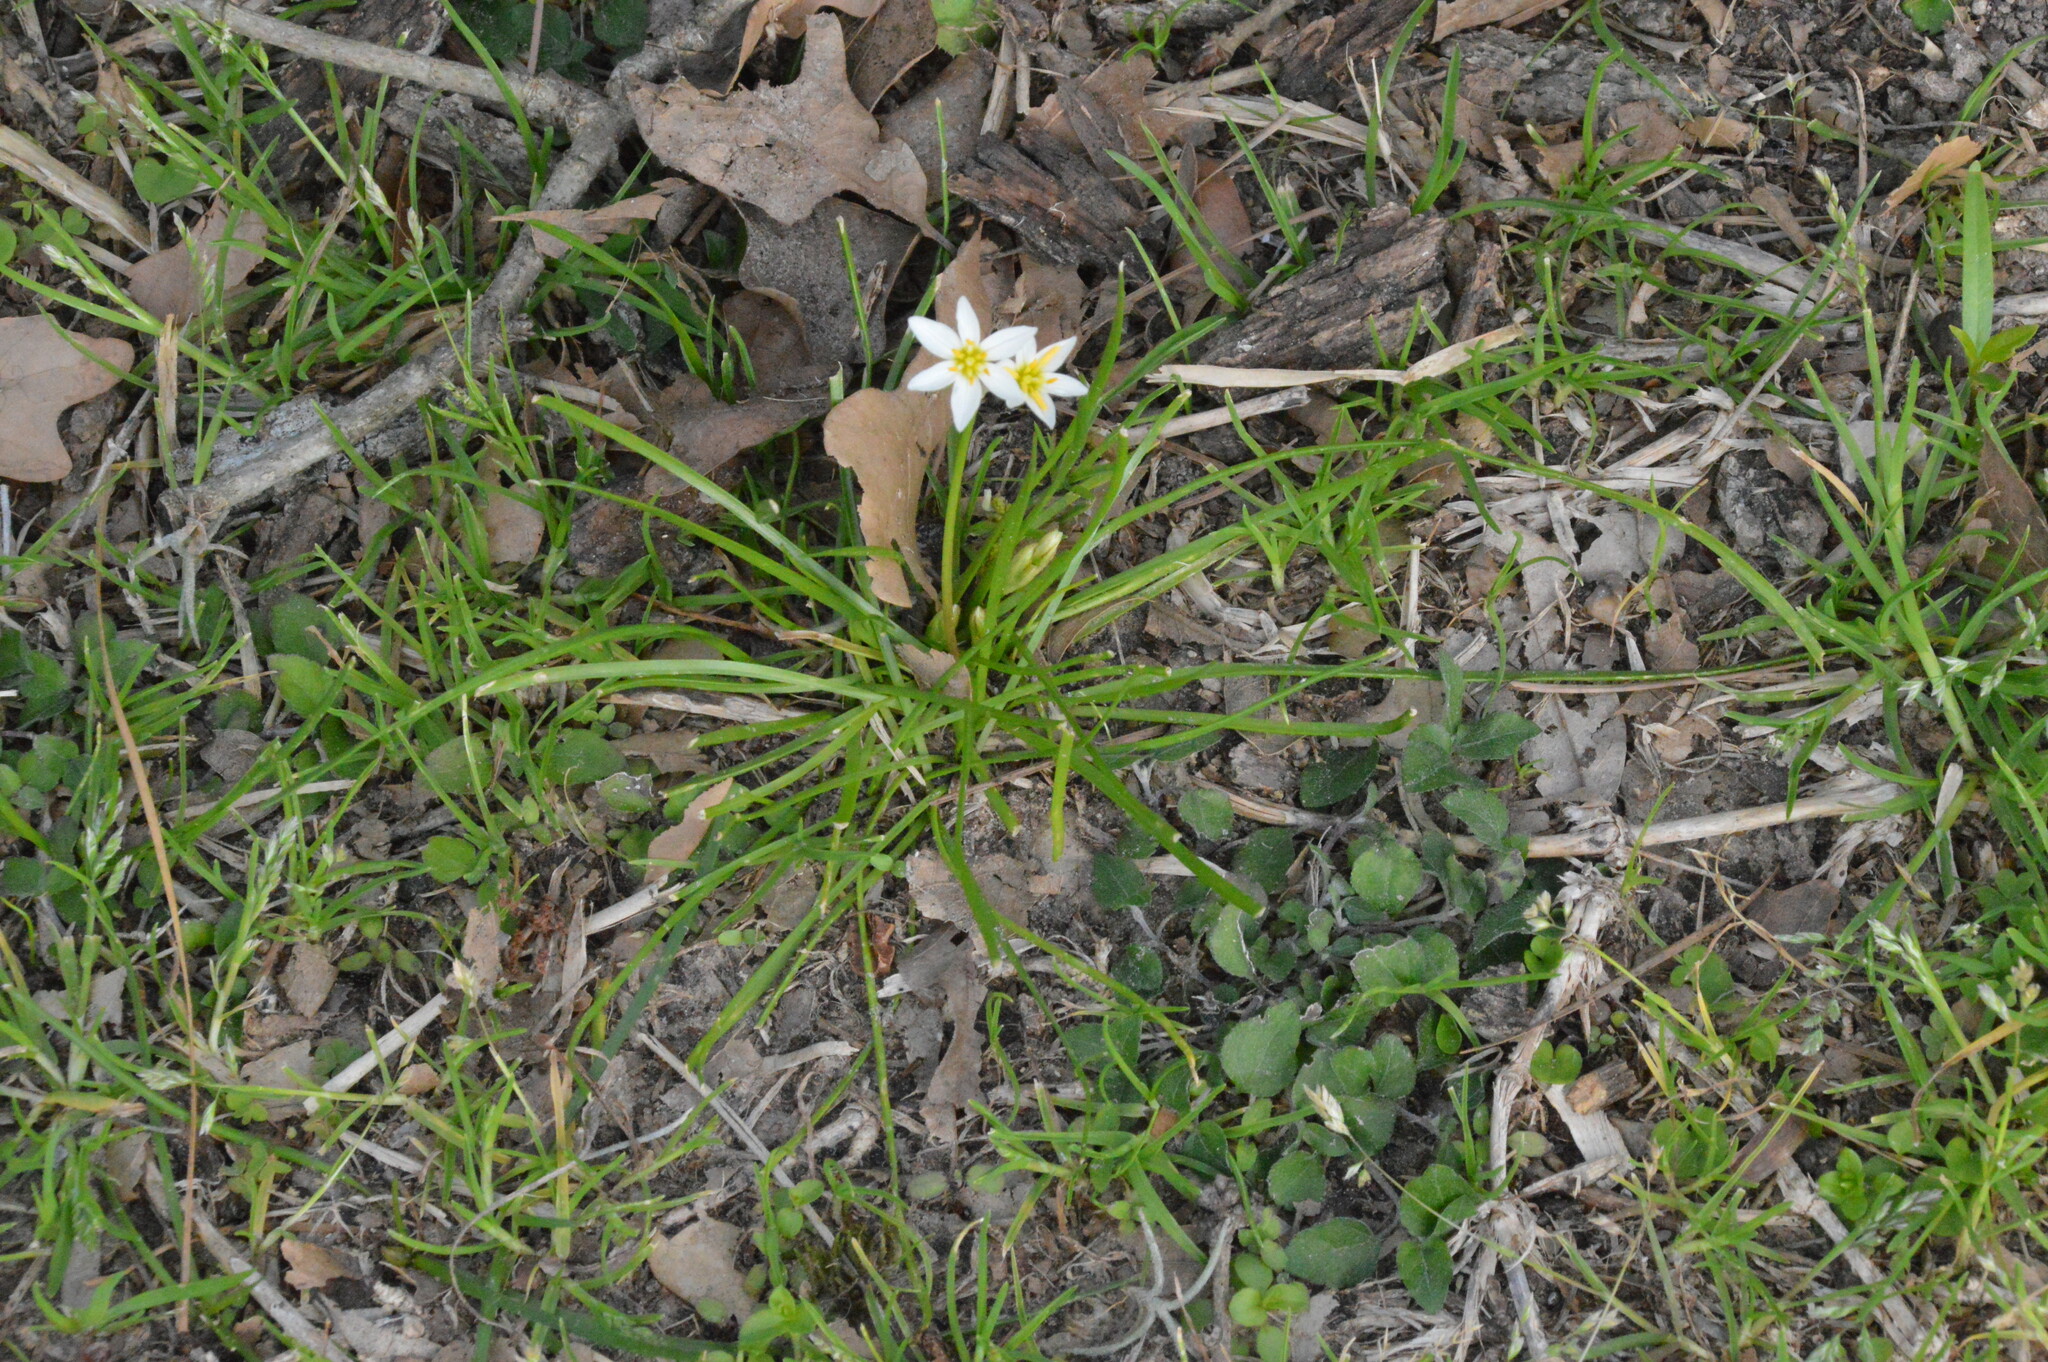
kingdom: Plantae
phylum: Tracheophyta
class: Liliopsida
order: Asparagales
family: Amaryllidaceae
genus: Nothoscordum
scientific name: Nothoscordum bivalve
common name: Crow-poison
